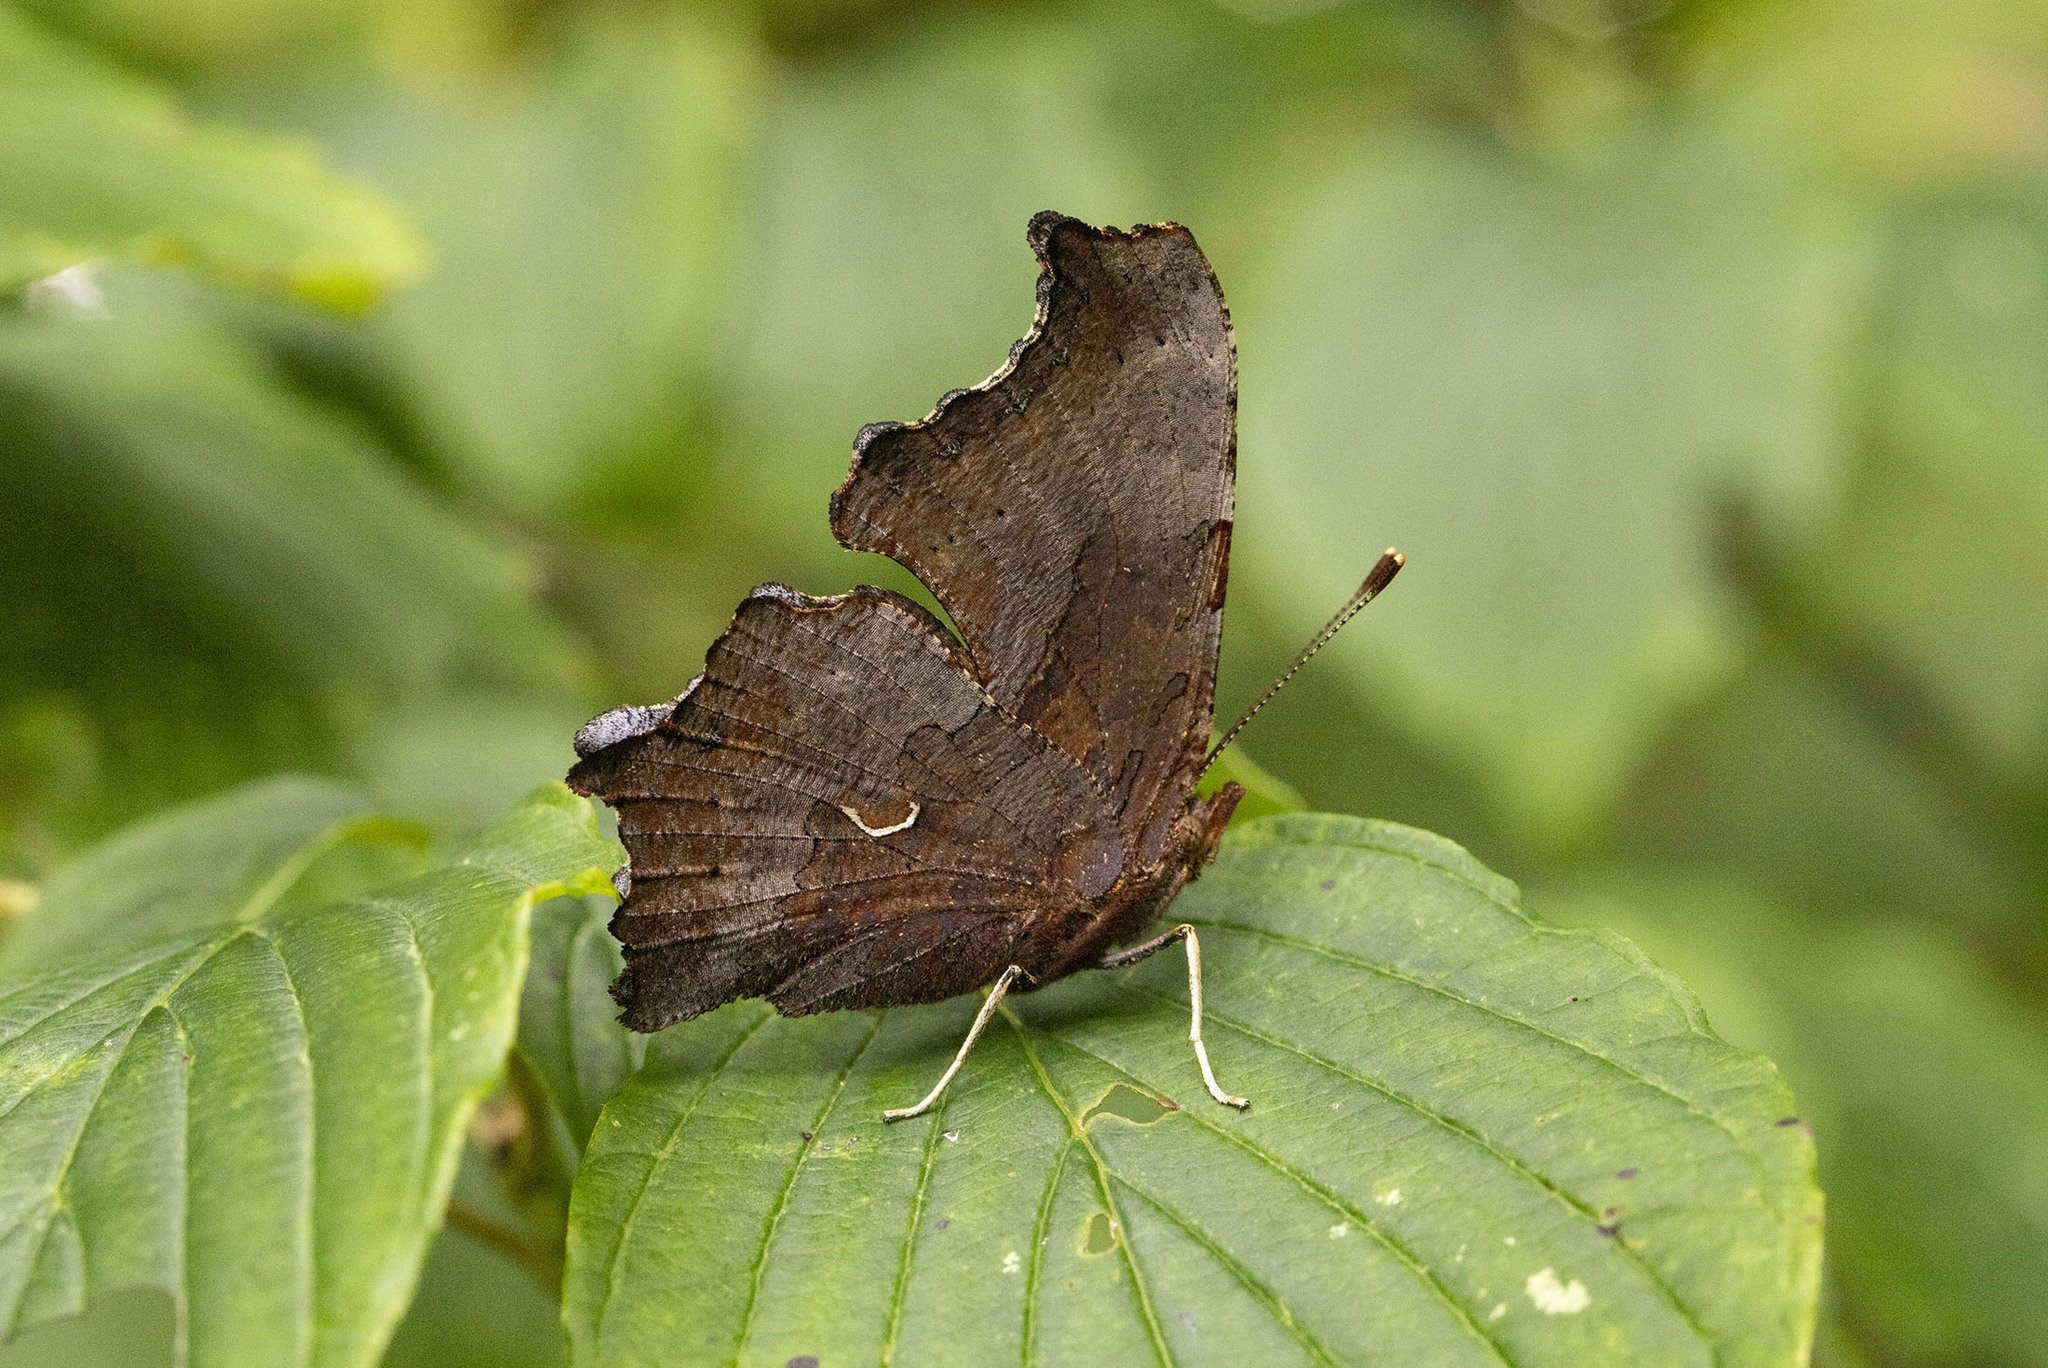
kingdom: Animalia
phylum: Arthropoda
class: Insecta
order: Lepidoptera
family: Nymphalidae
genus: Polygonia
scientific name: Polygonia comma
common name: Eastern comma
